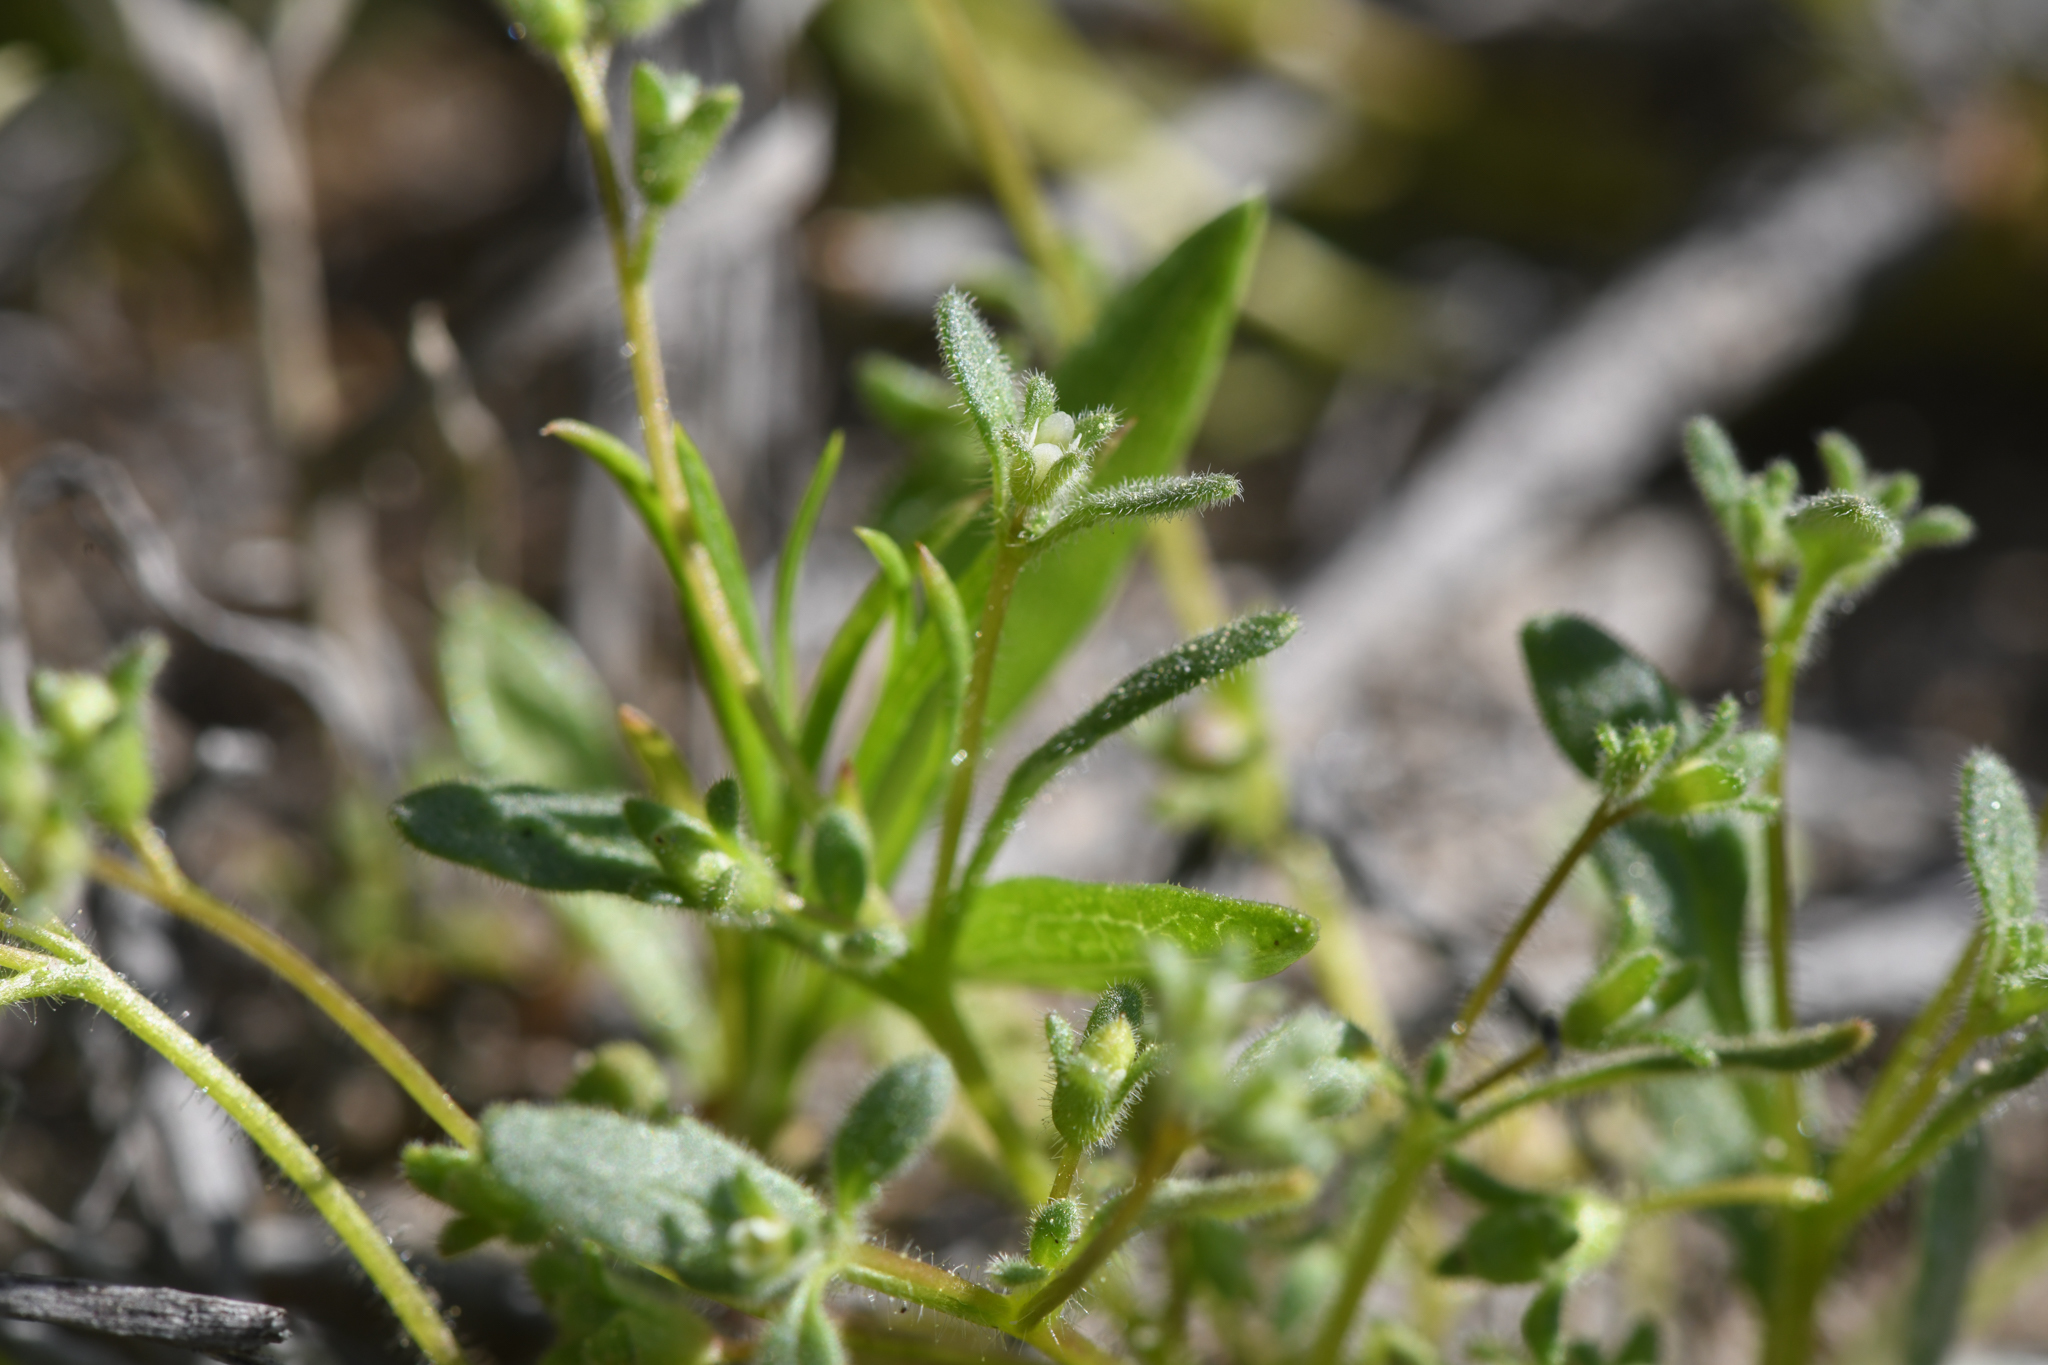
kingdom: Plantae
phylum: Tracheophyta
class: Magnoliopsida
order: Boraginales
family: Hydrophyllaceae
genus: Phacelia
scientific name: Phacelia tetramera
